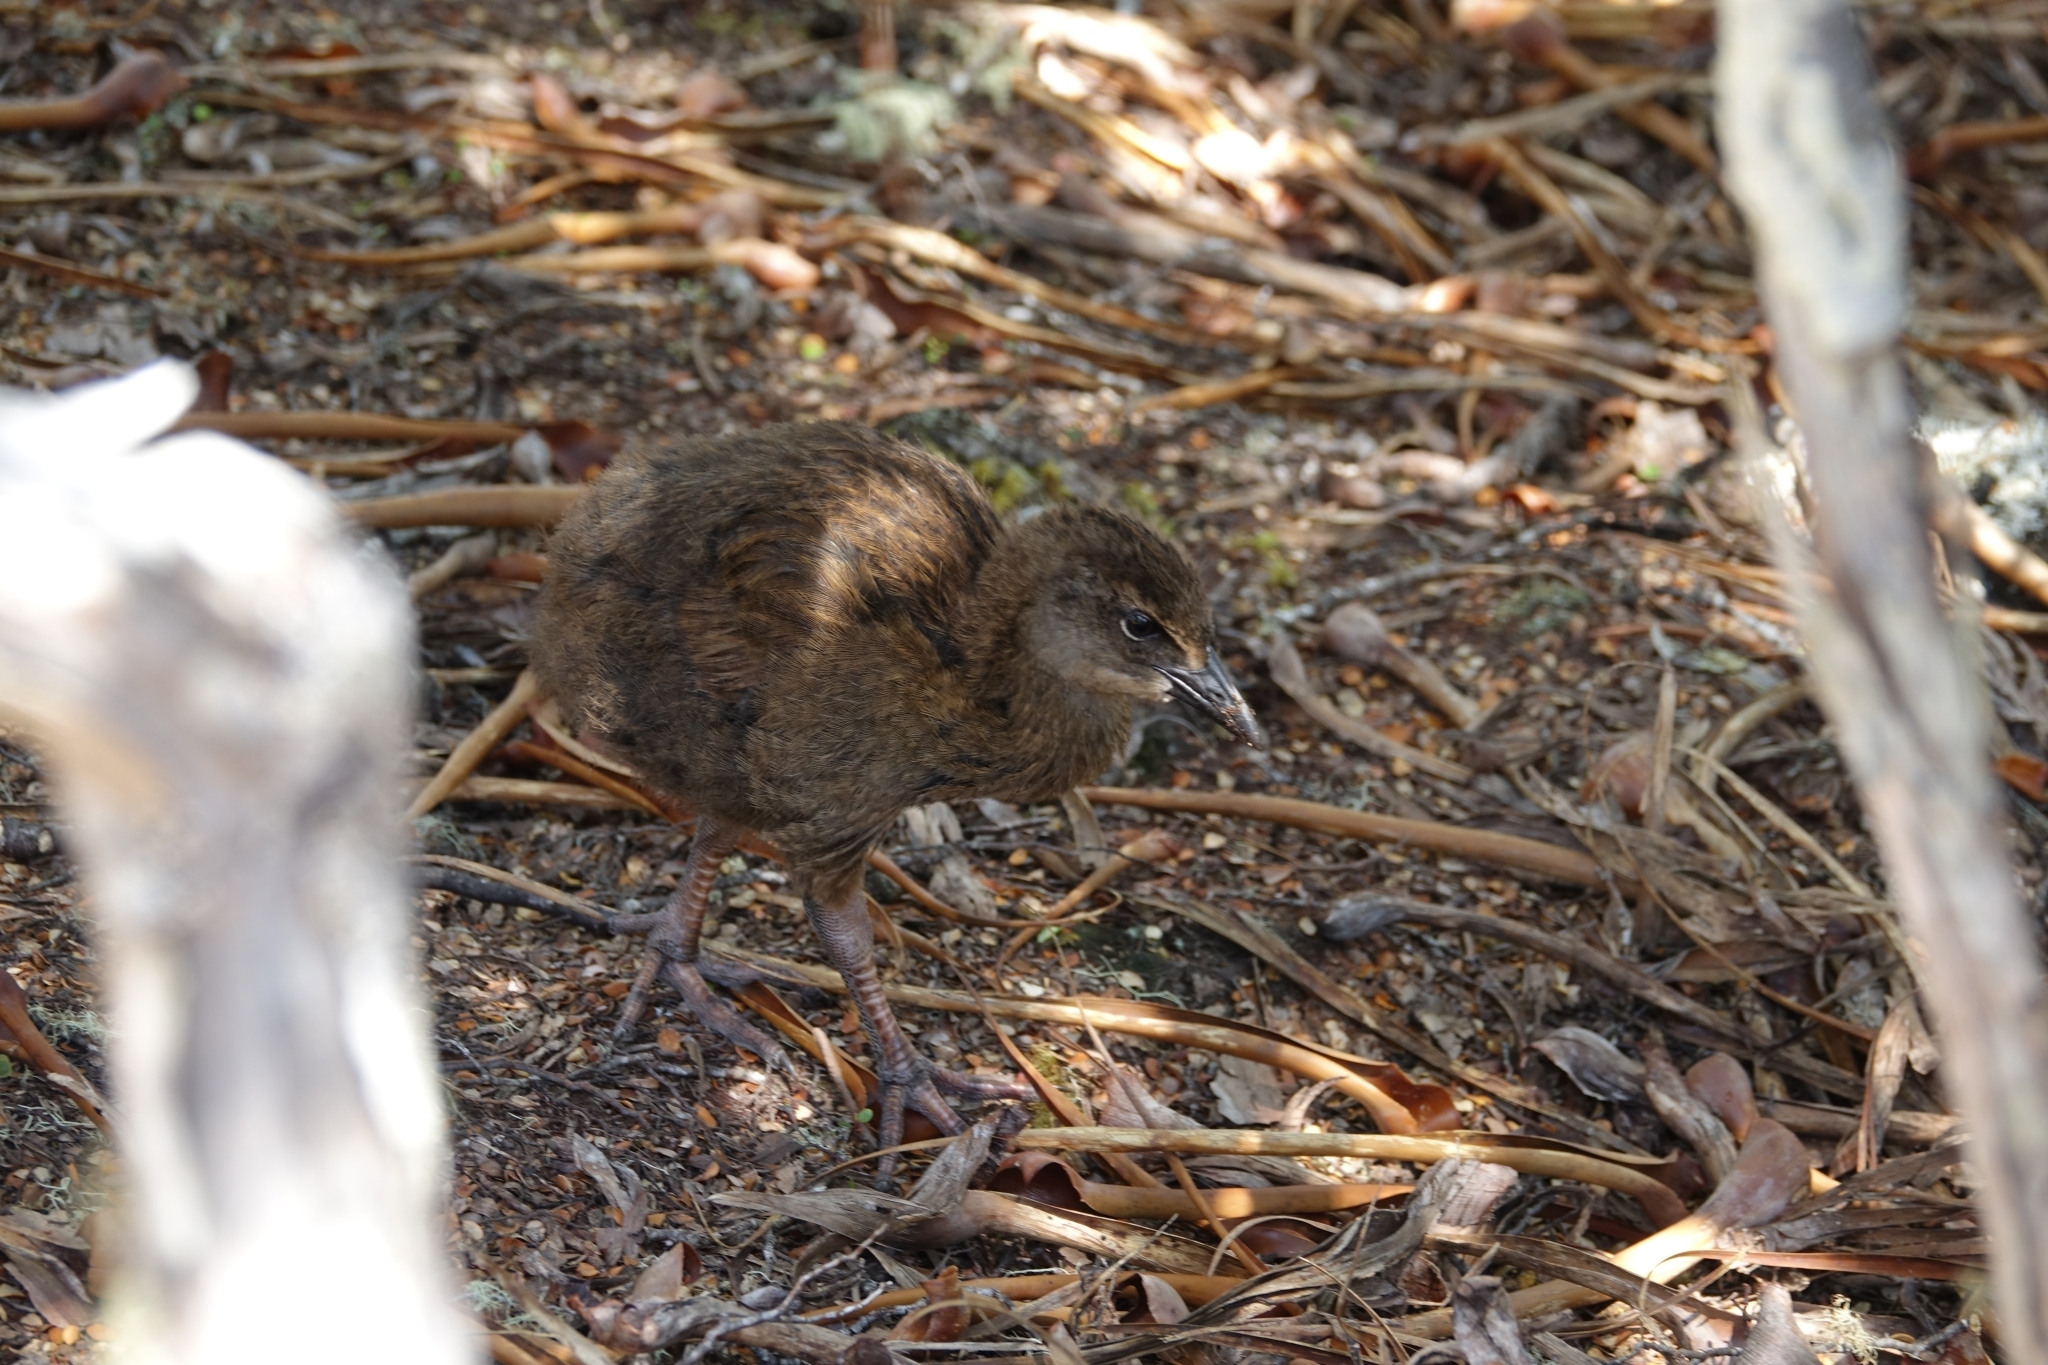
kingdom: Animalia
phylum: Chordata
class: Aves
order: Gruiformes
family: Rallidae
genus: Gallirallus
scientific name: Gallirallus australis
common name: Weka
